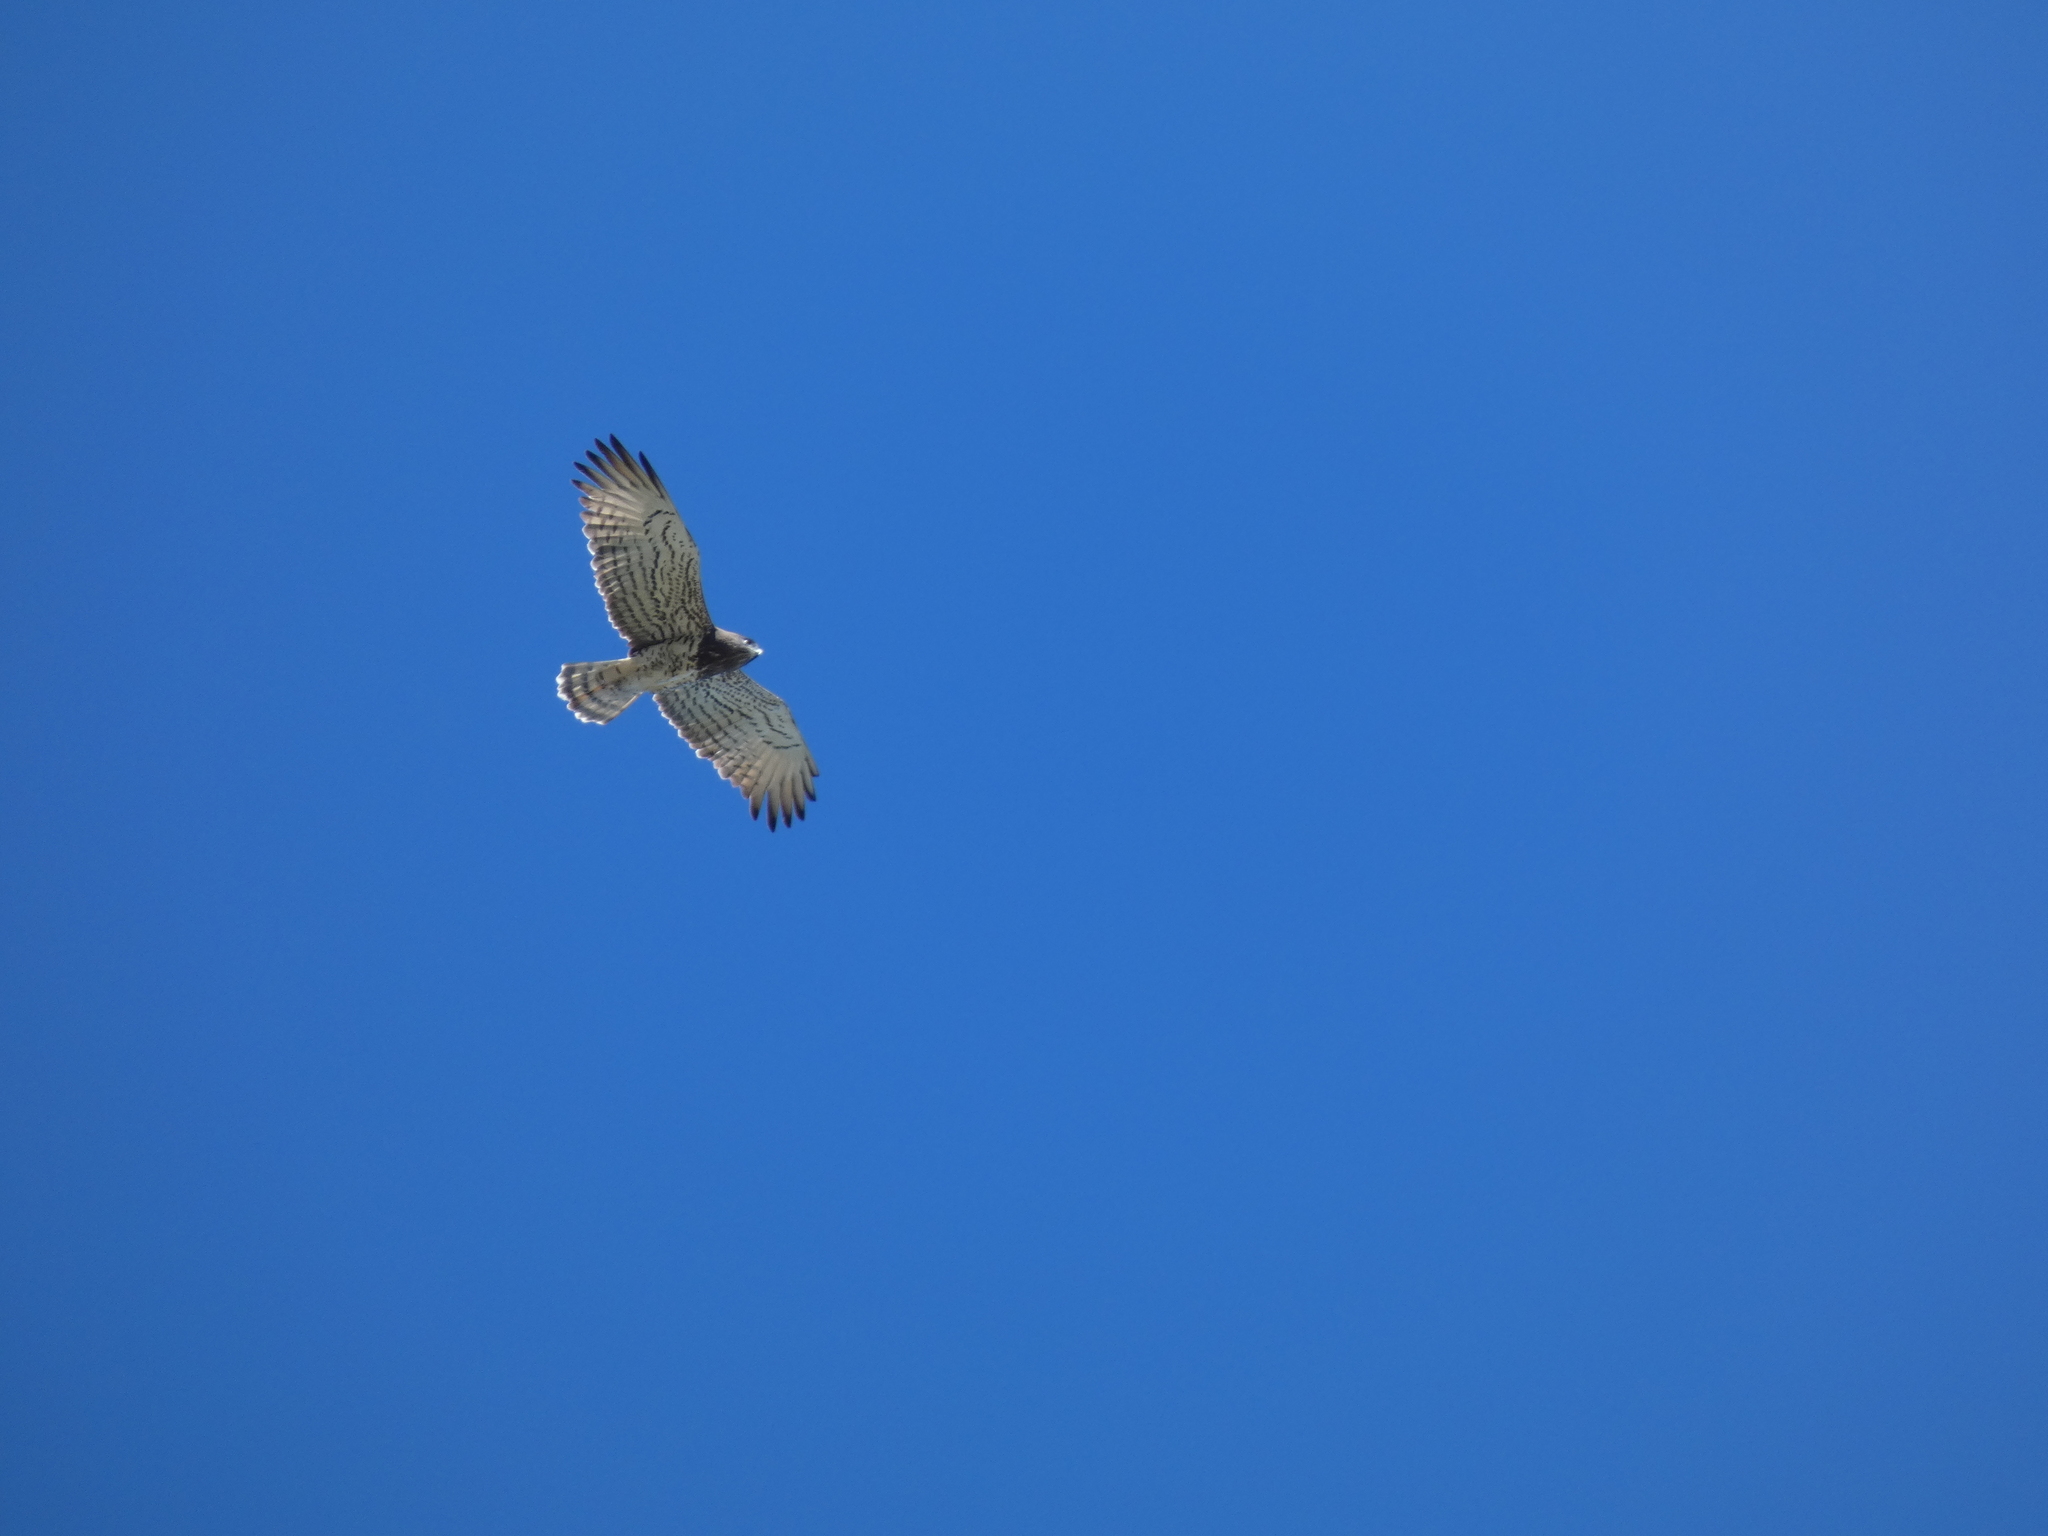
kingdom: Animalia
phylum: Chordata
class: Aves
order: Accipitriformes
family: Accipitridae
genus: Circaetus
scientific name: Circaetus gallicus
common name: Short-toed snake eagle
